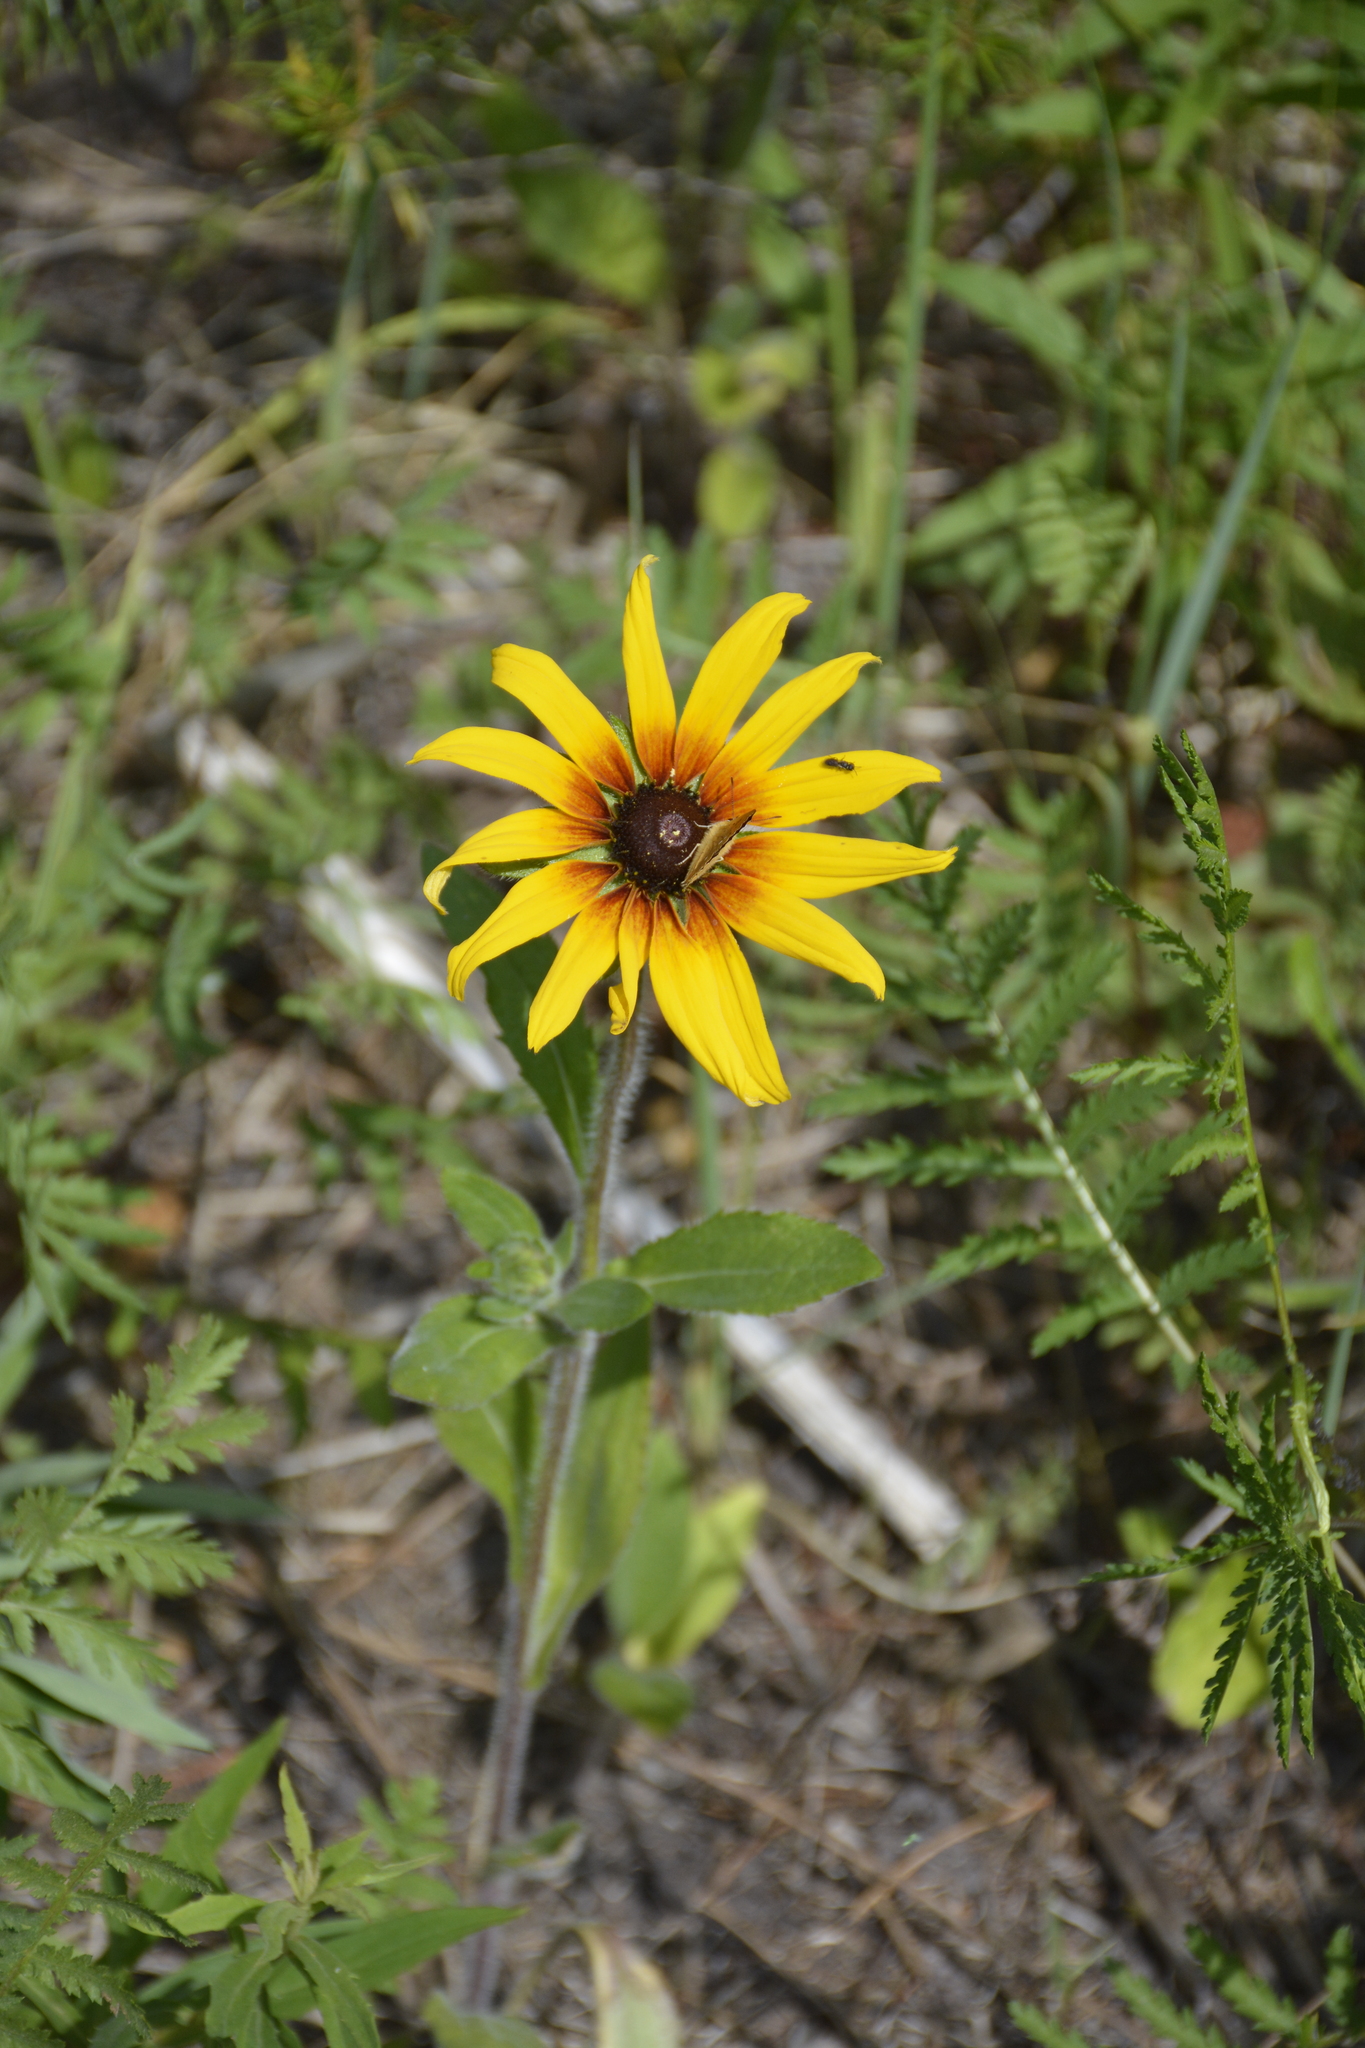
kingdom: Plantae
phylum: Tracheophyta
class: Magnoliopsida
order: Asterales
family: Asteraceae
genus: Rudbeckia
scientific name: Rudbeckia hirta
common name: Black-eyed-susan
